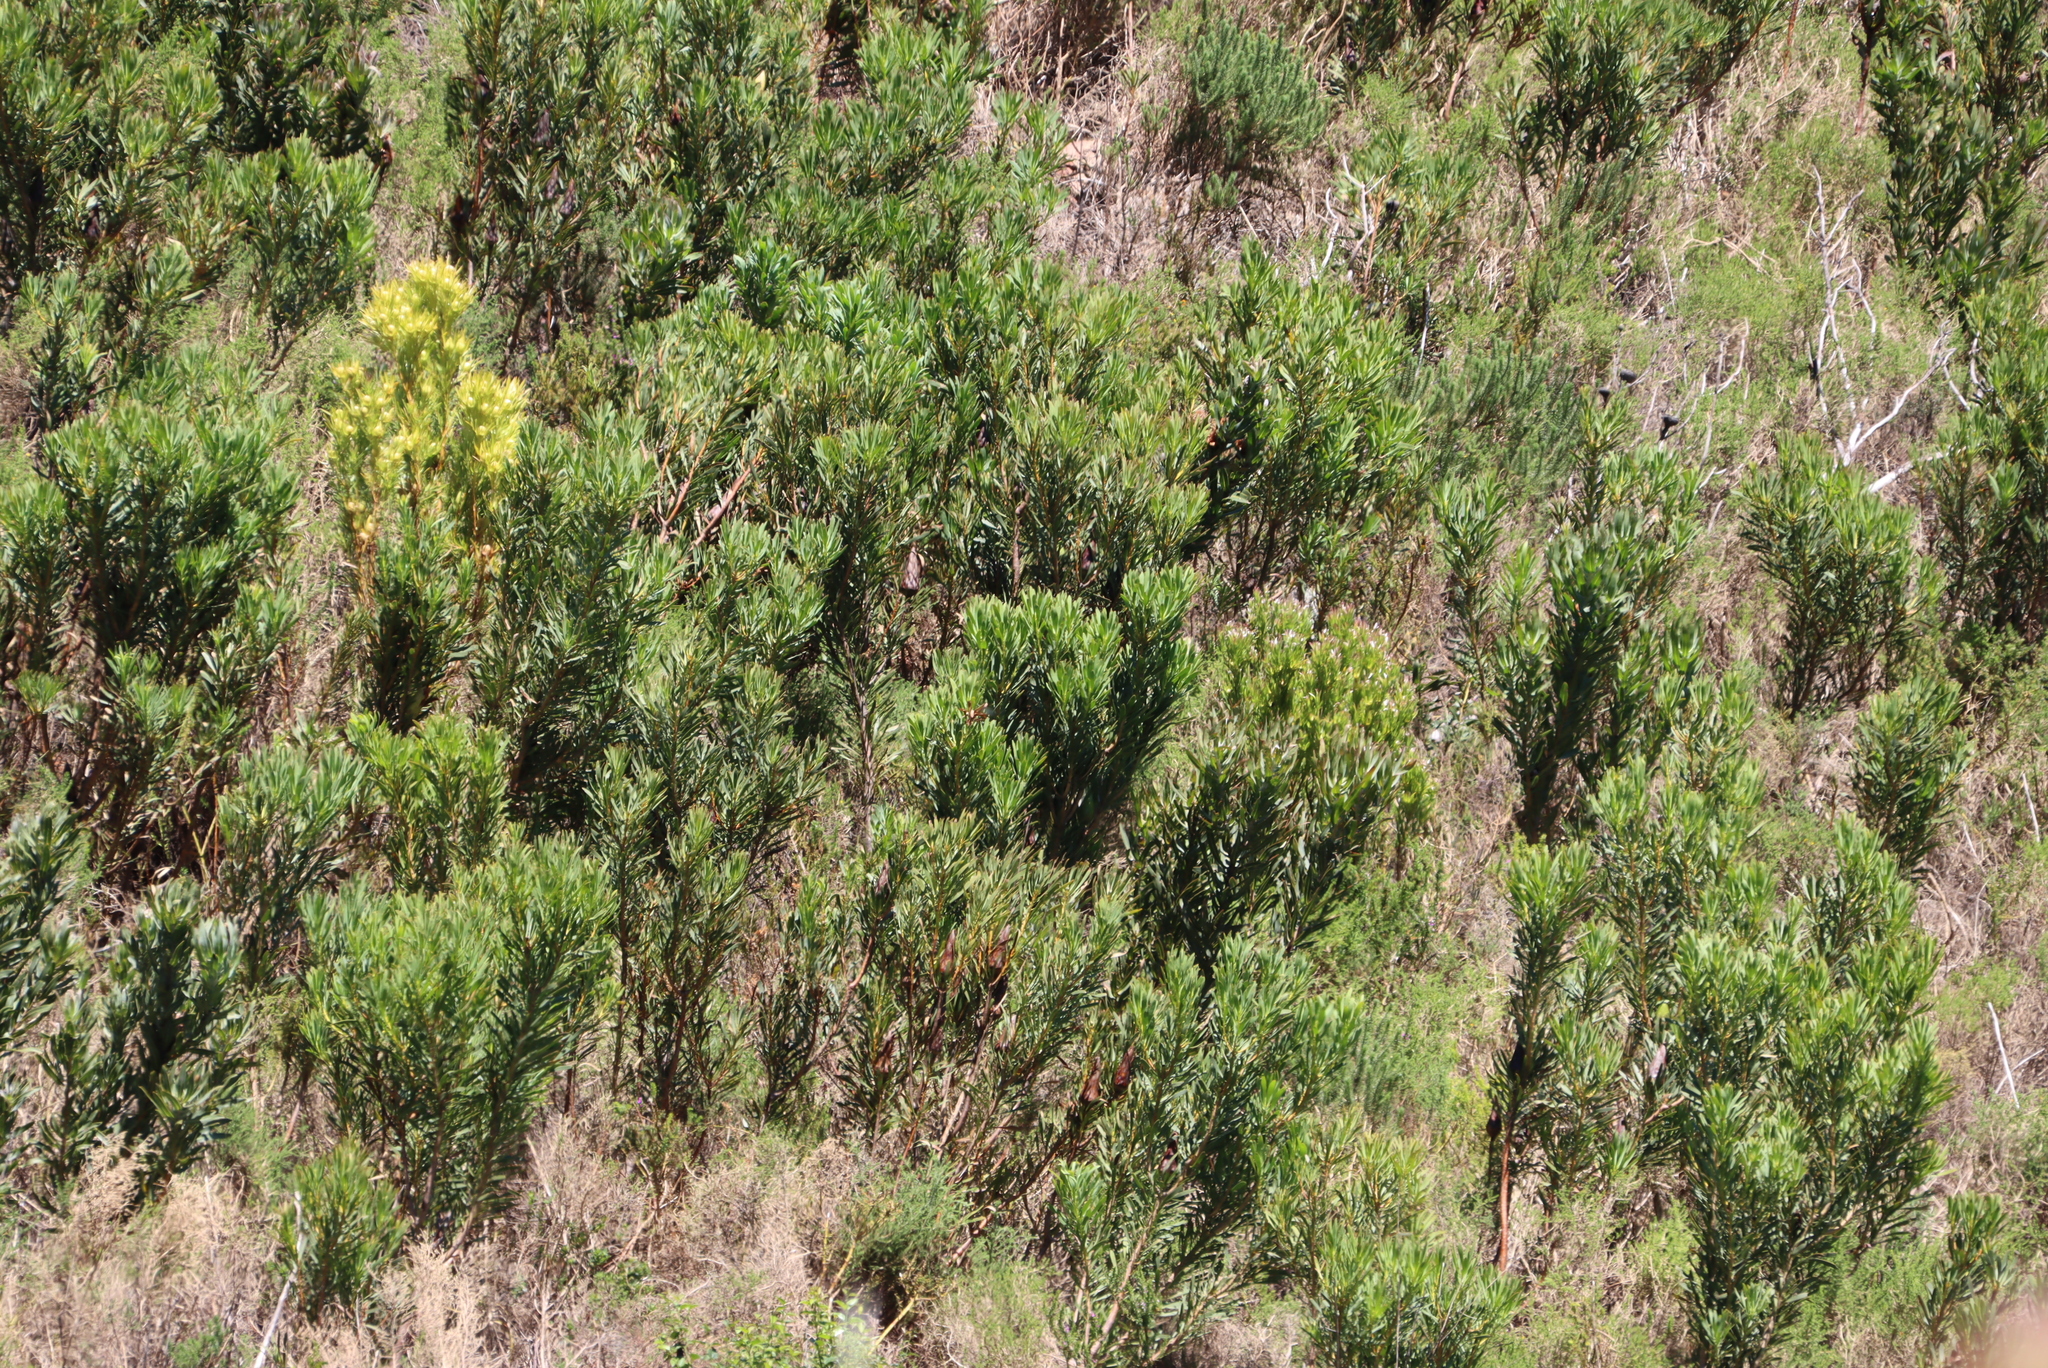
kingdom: Plantae
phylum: Tracheophyta
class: Magnoliopsida
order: Proteales
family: Proteaceae
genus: Protea
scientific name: Protea laurifolia
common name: Grey-leaf sugarbsh
